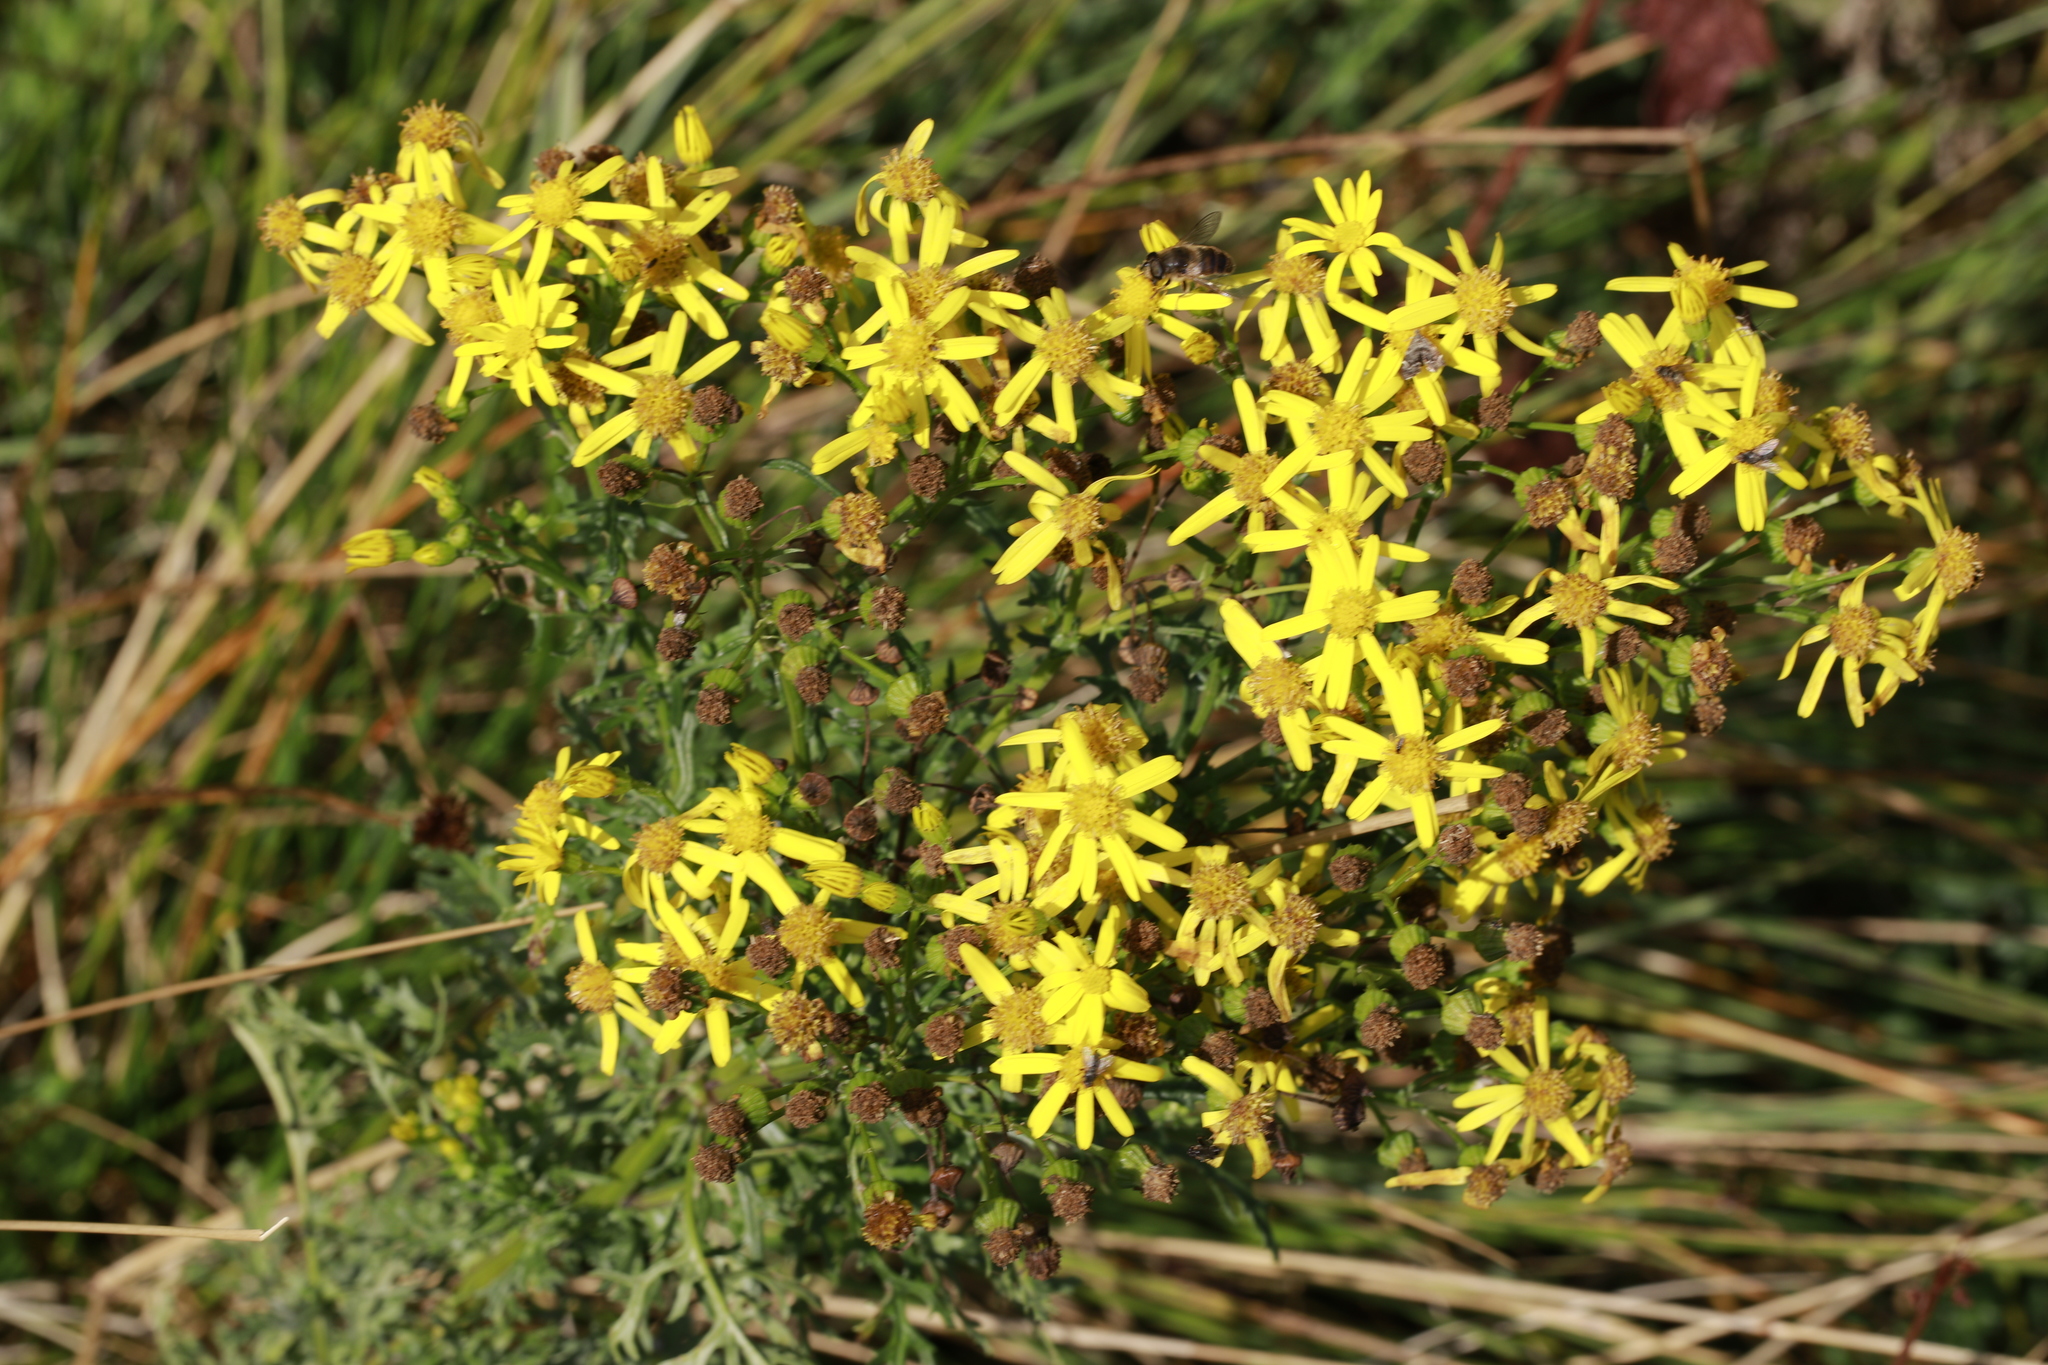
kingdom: Plantae
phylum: Tracheophyta
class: Magnoliopsida
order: Asterales
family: Asteraceae
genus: Jacobaea
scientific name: Jacobaea vulgaris
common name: Stinking willie
